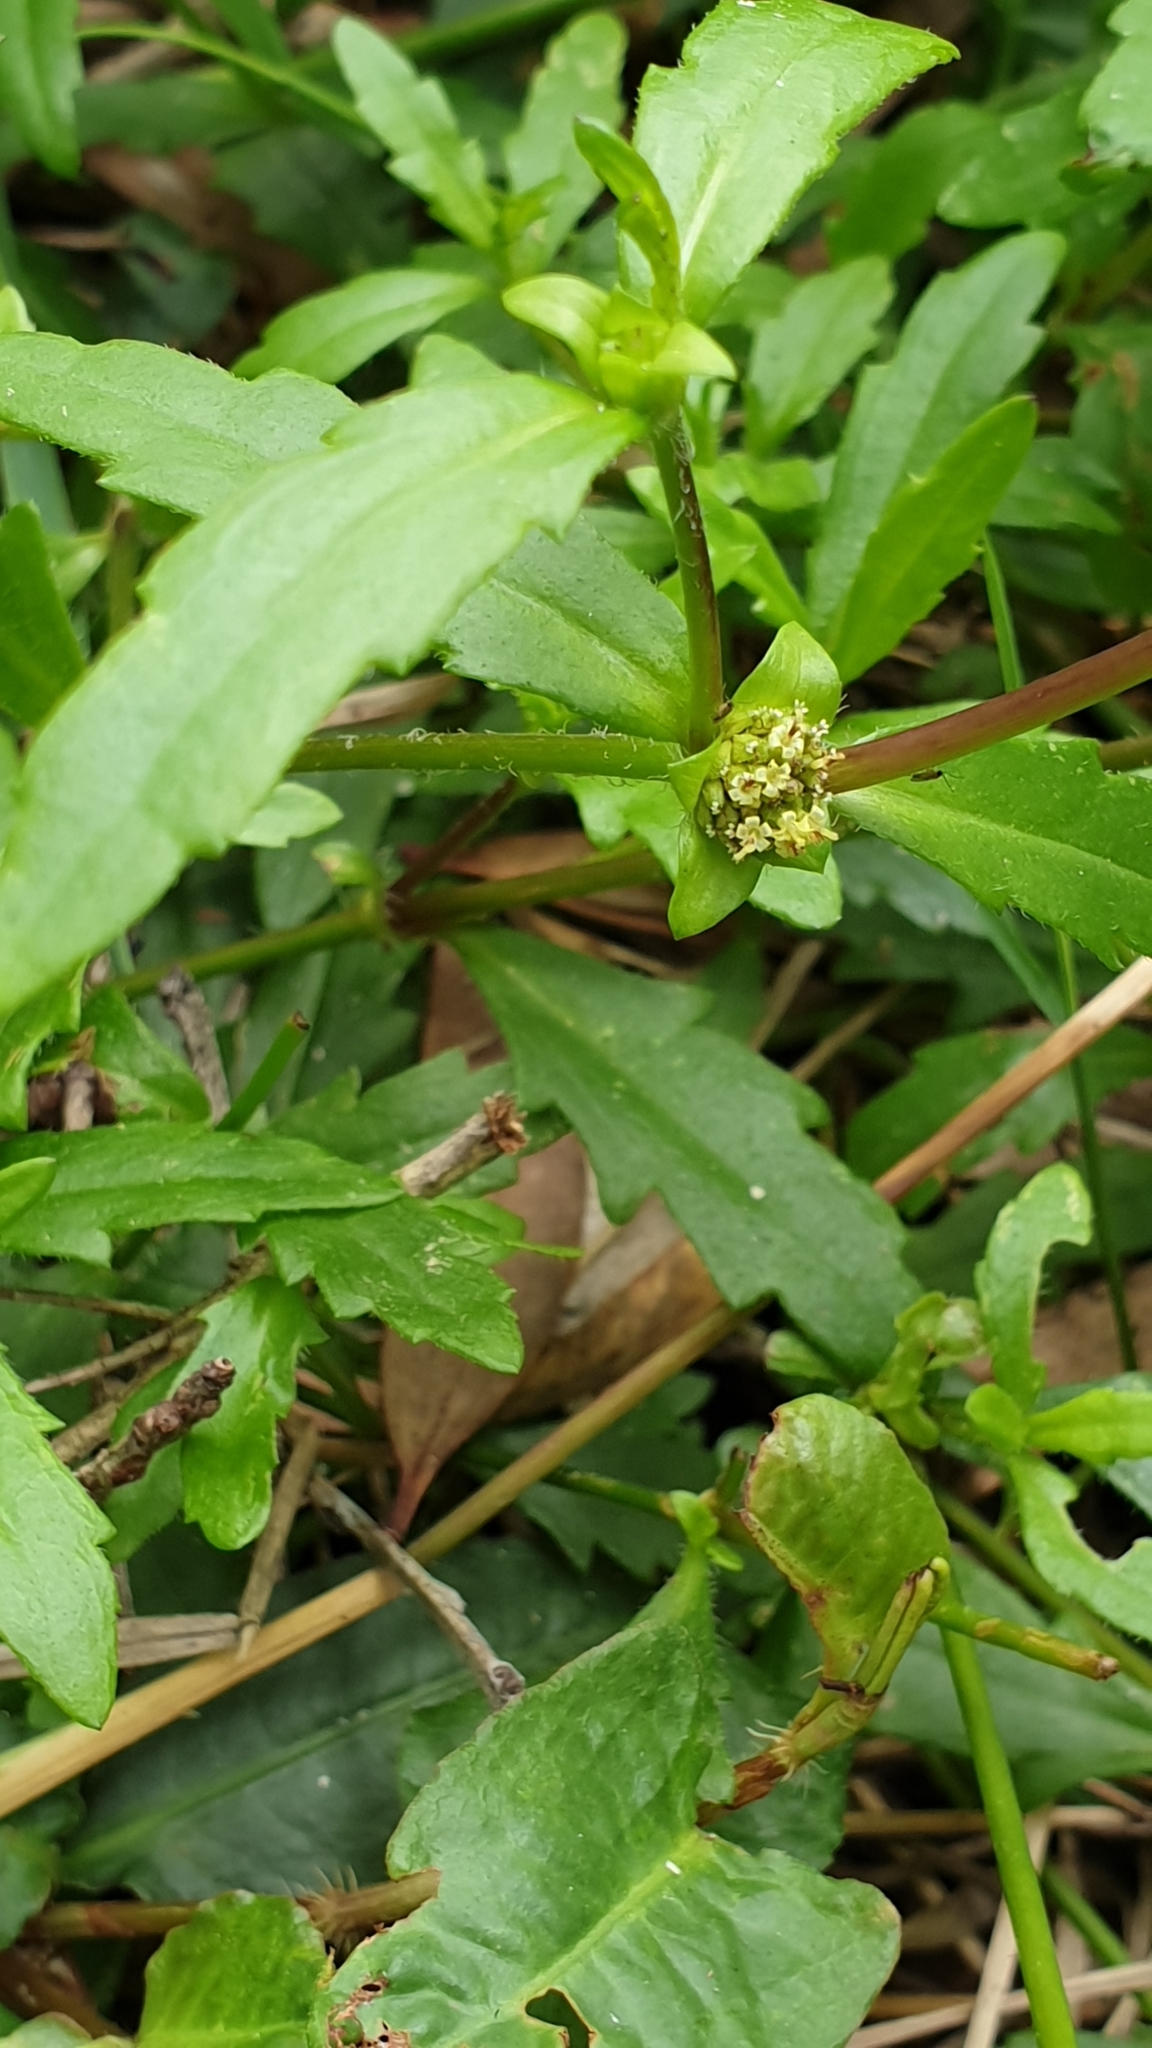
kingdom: Plantae
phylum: Tracheophyta
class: Magnoliopsida
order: Asterales
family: Asteraceae
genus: Enydra
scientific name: Enydra fluctuans
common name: Buffalo spinach
